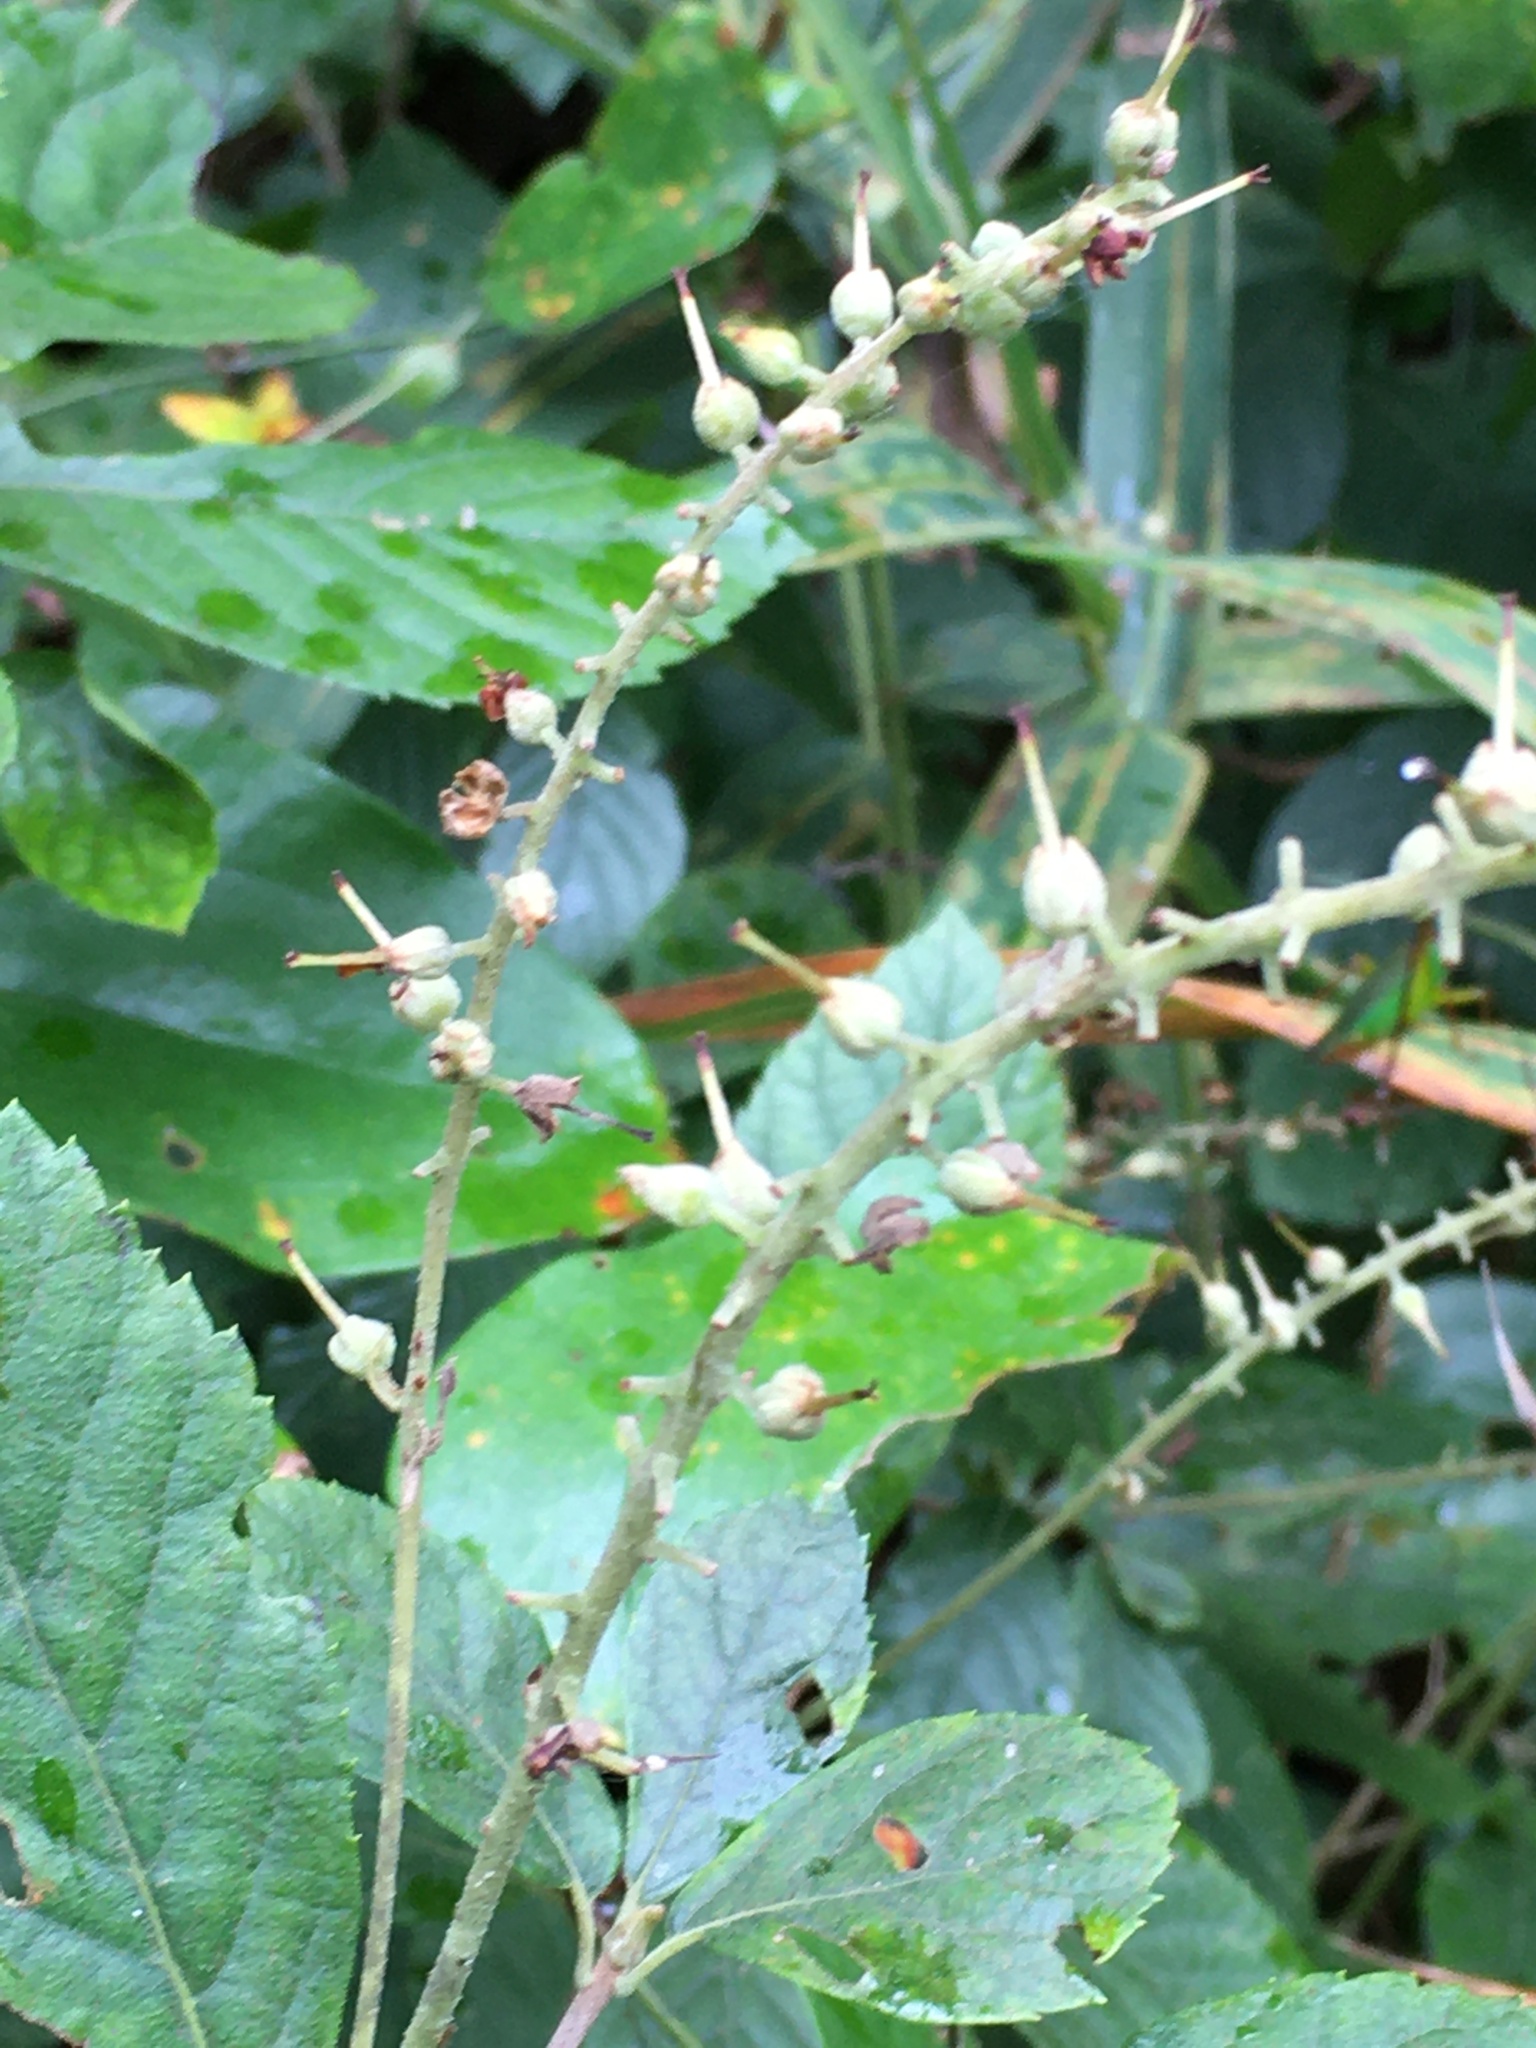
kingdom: Plantae
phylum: Tracheophyta
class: Magnoliopsida
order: Ericales
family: Clethraceae
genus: Clethra
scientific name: Clethra alnifolia
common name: Sweet pepperbush
